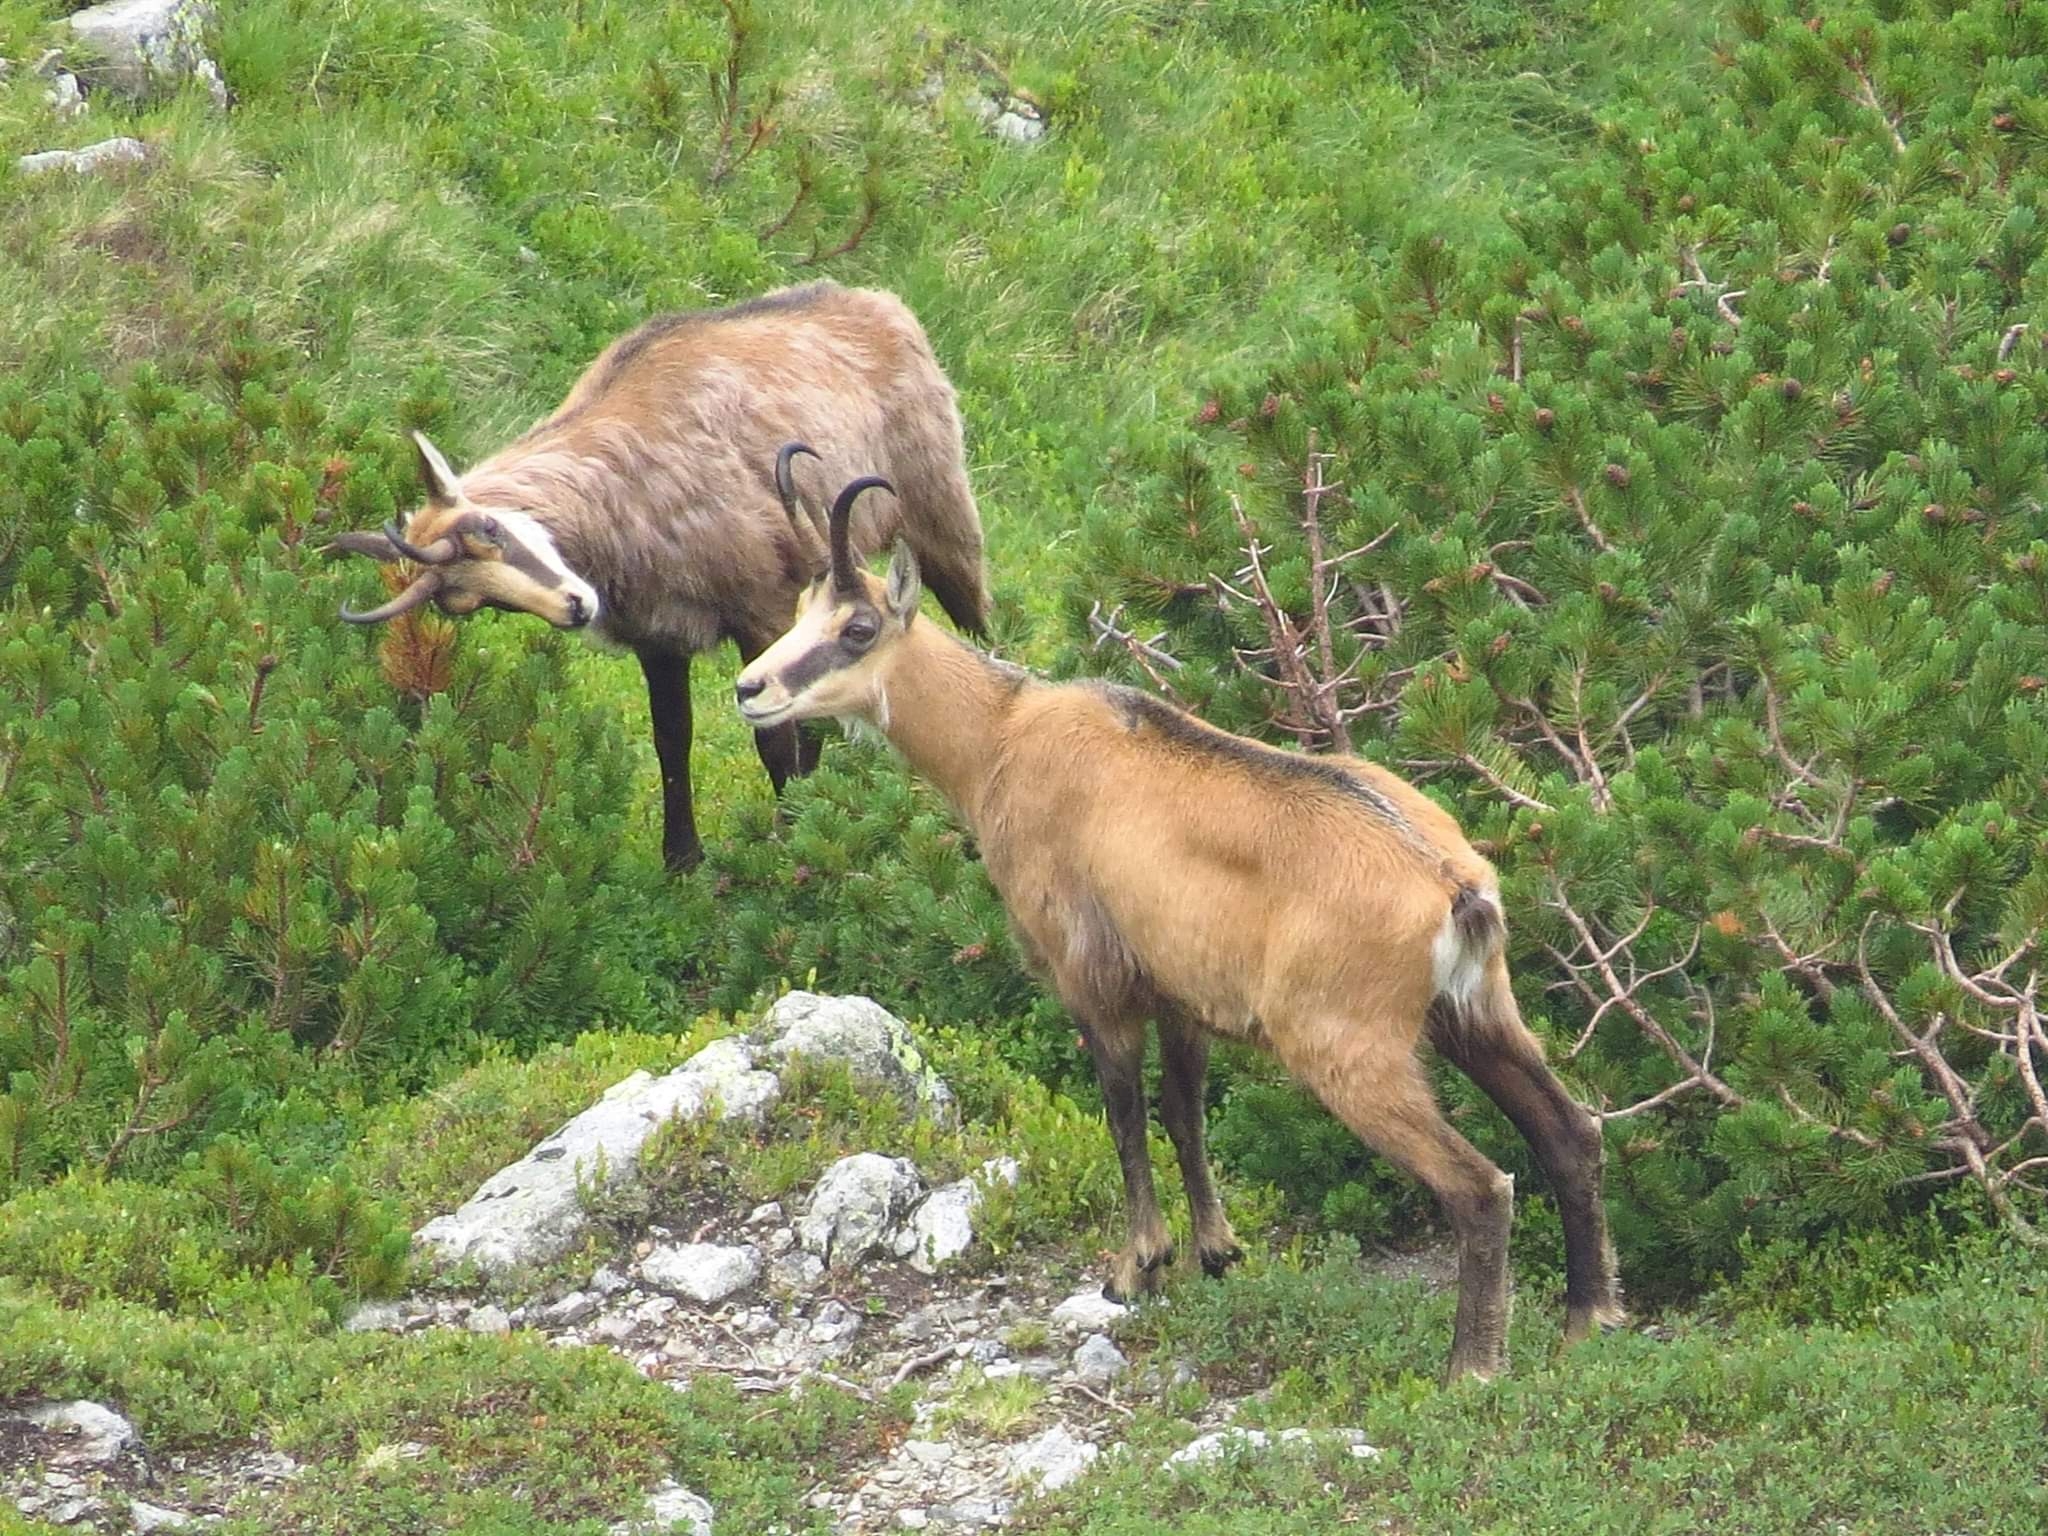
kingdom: Animalia
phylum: Chordata
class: Mammalia
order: Artiodactyla
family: Bovidae
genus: Rupicapra
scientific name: Rupicapra rupicapra
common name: Chamois
